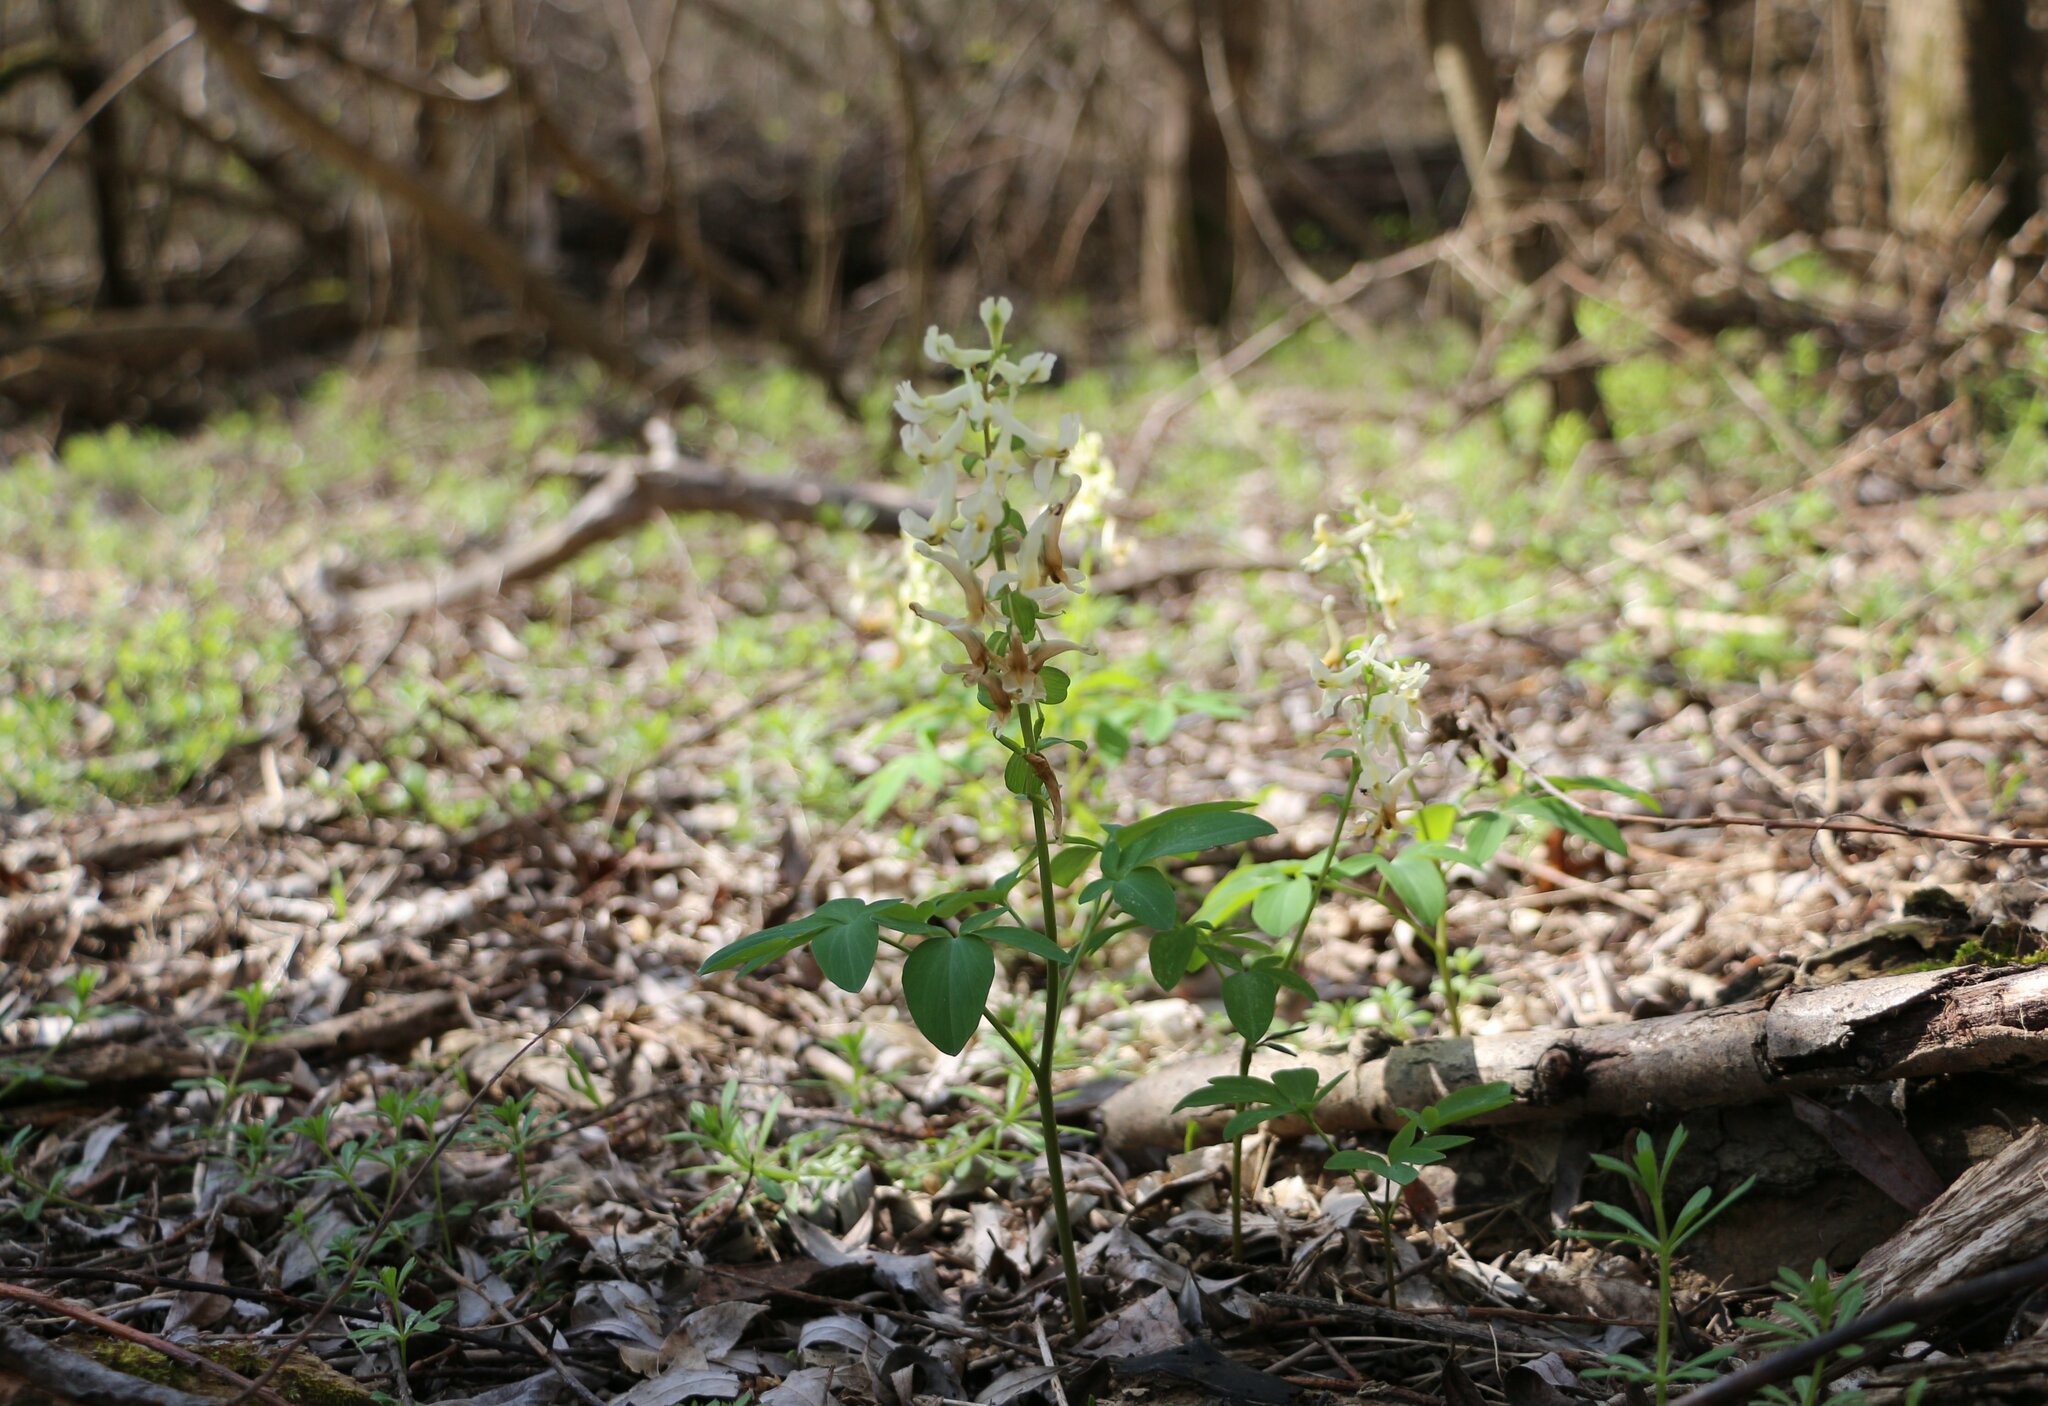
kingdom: Plantae
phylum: Tracheophyta
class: Magnoliopsida
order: Ranunculales
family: Papaveraceae
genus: Corydalis
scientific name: Corydalis cava
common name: Hollowroot
